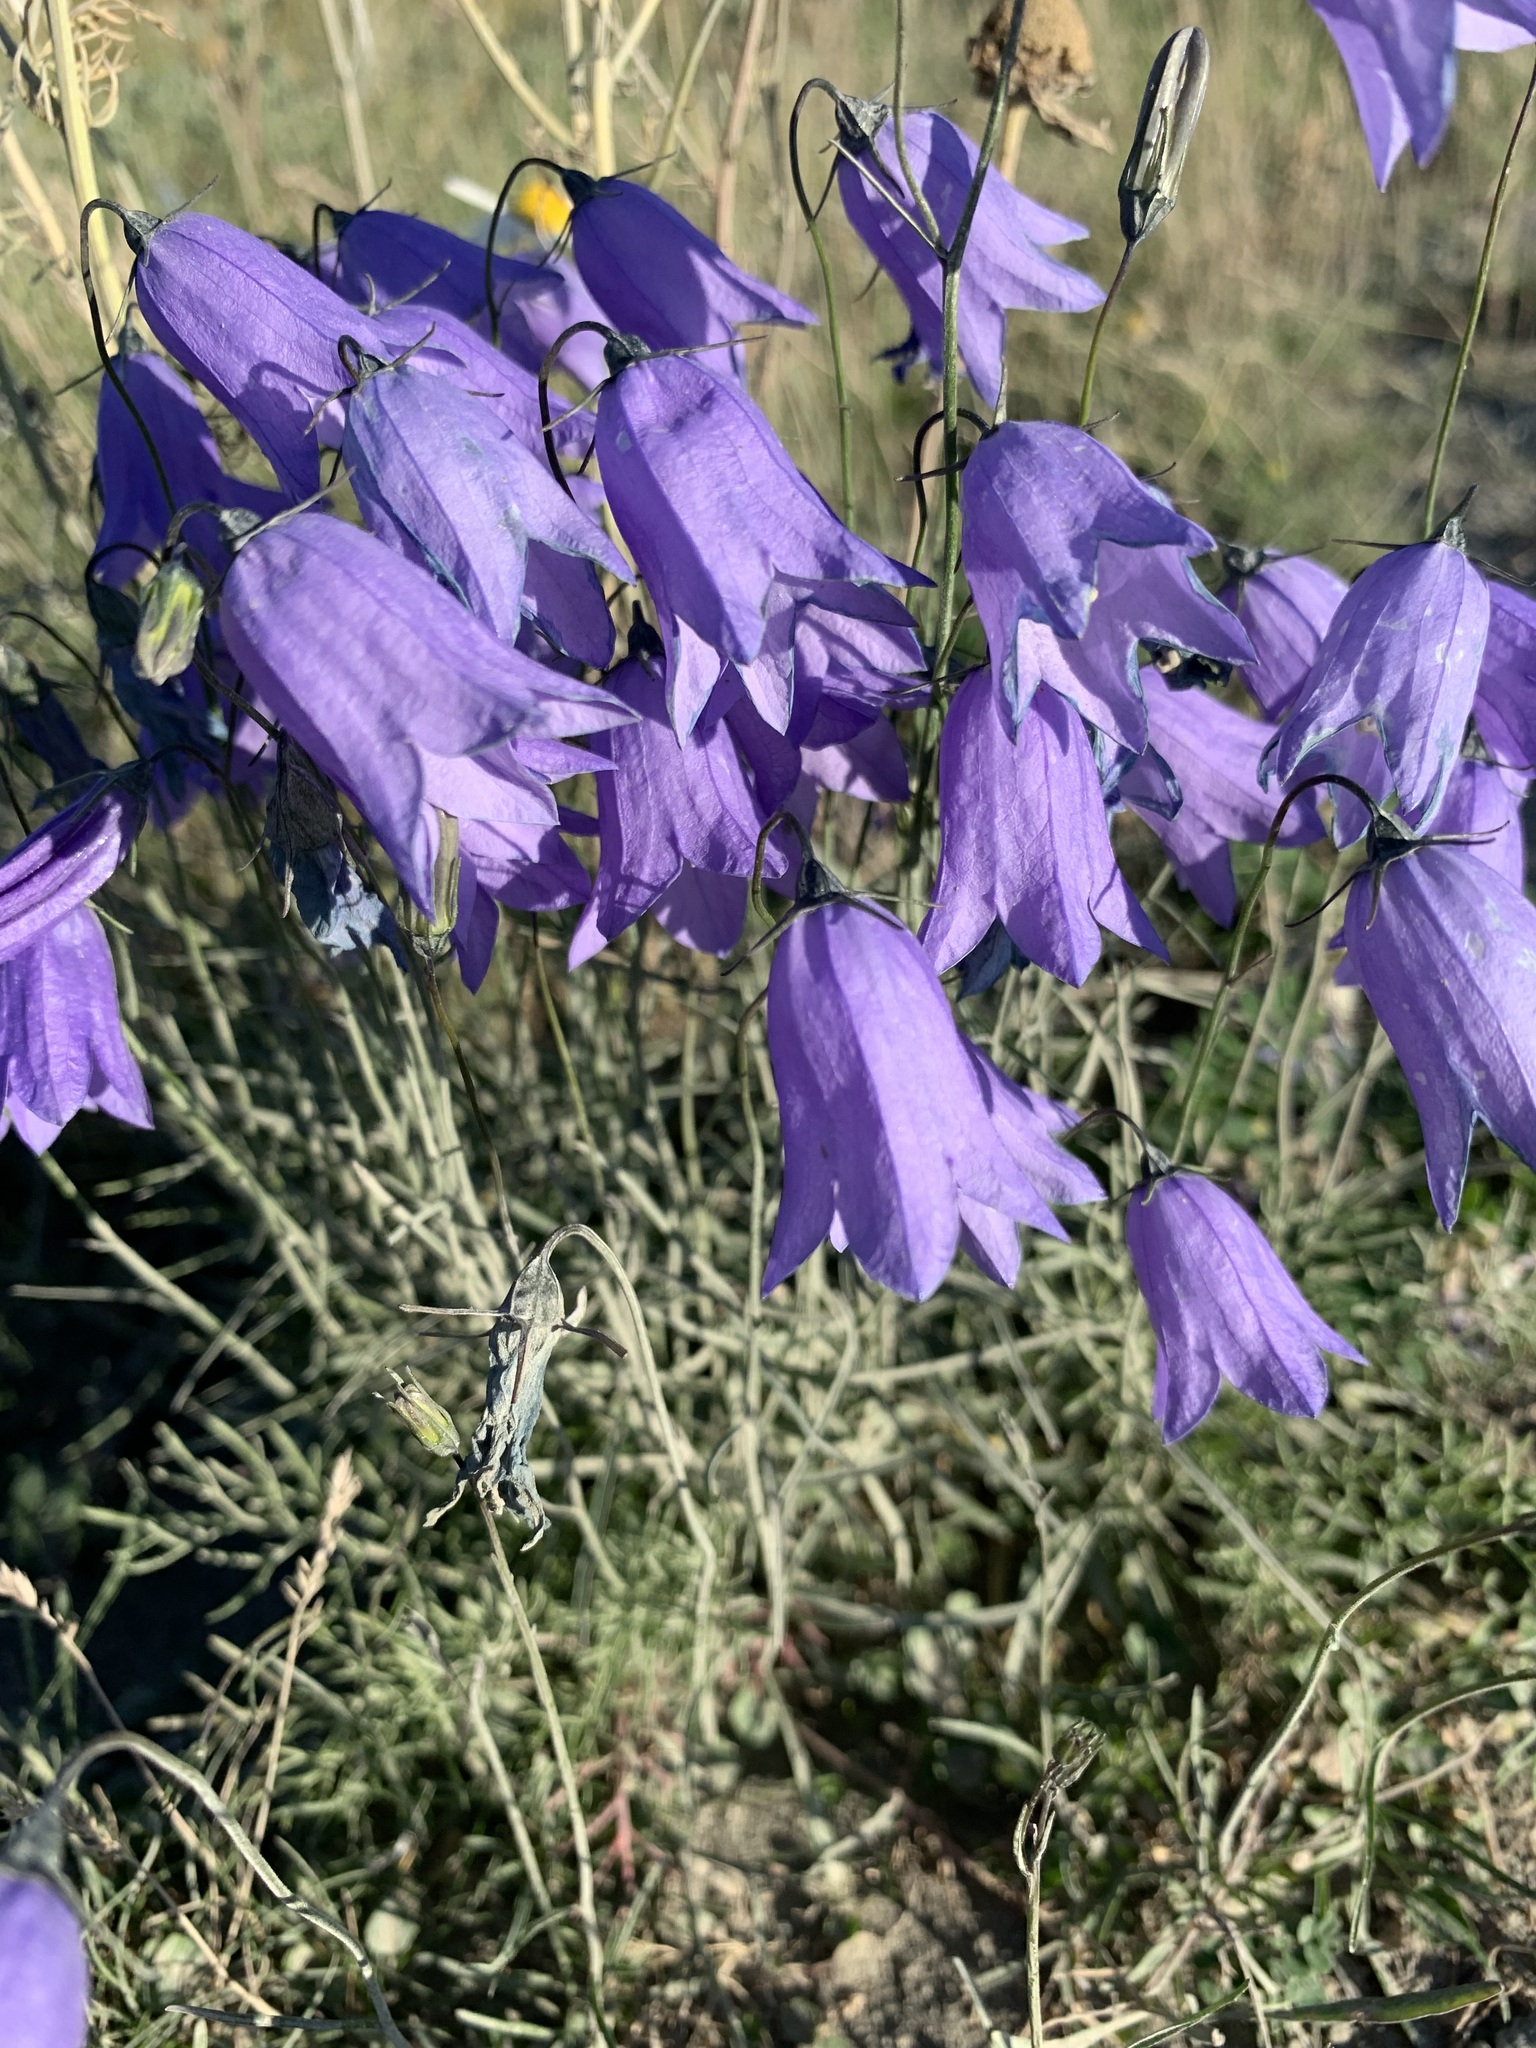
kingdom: Plantae
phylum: Tracheophyta
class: Magnoliopsida
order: Asterales
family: Campanulaceae
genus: Campanula
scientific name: Campanula rotundifolia
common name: Harebell
